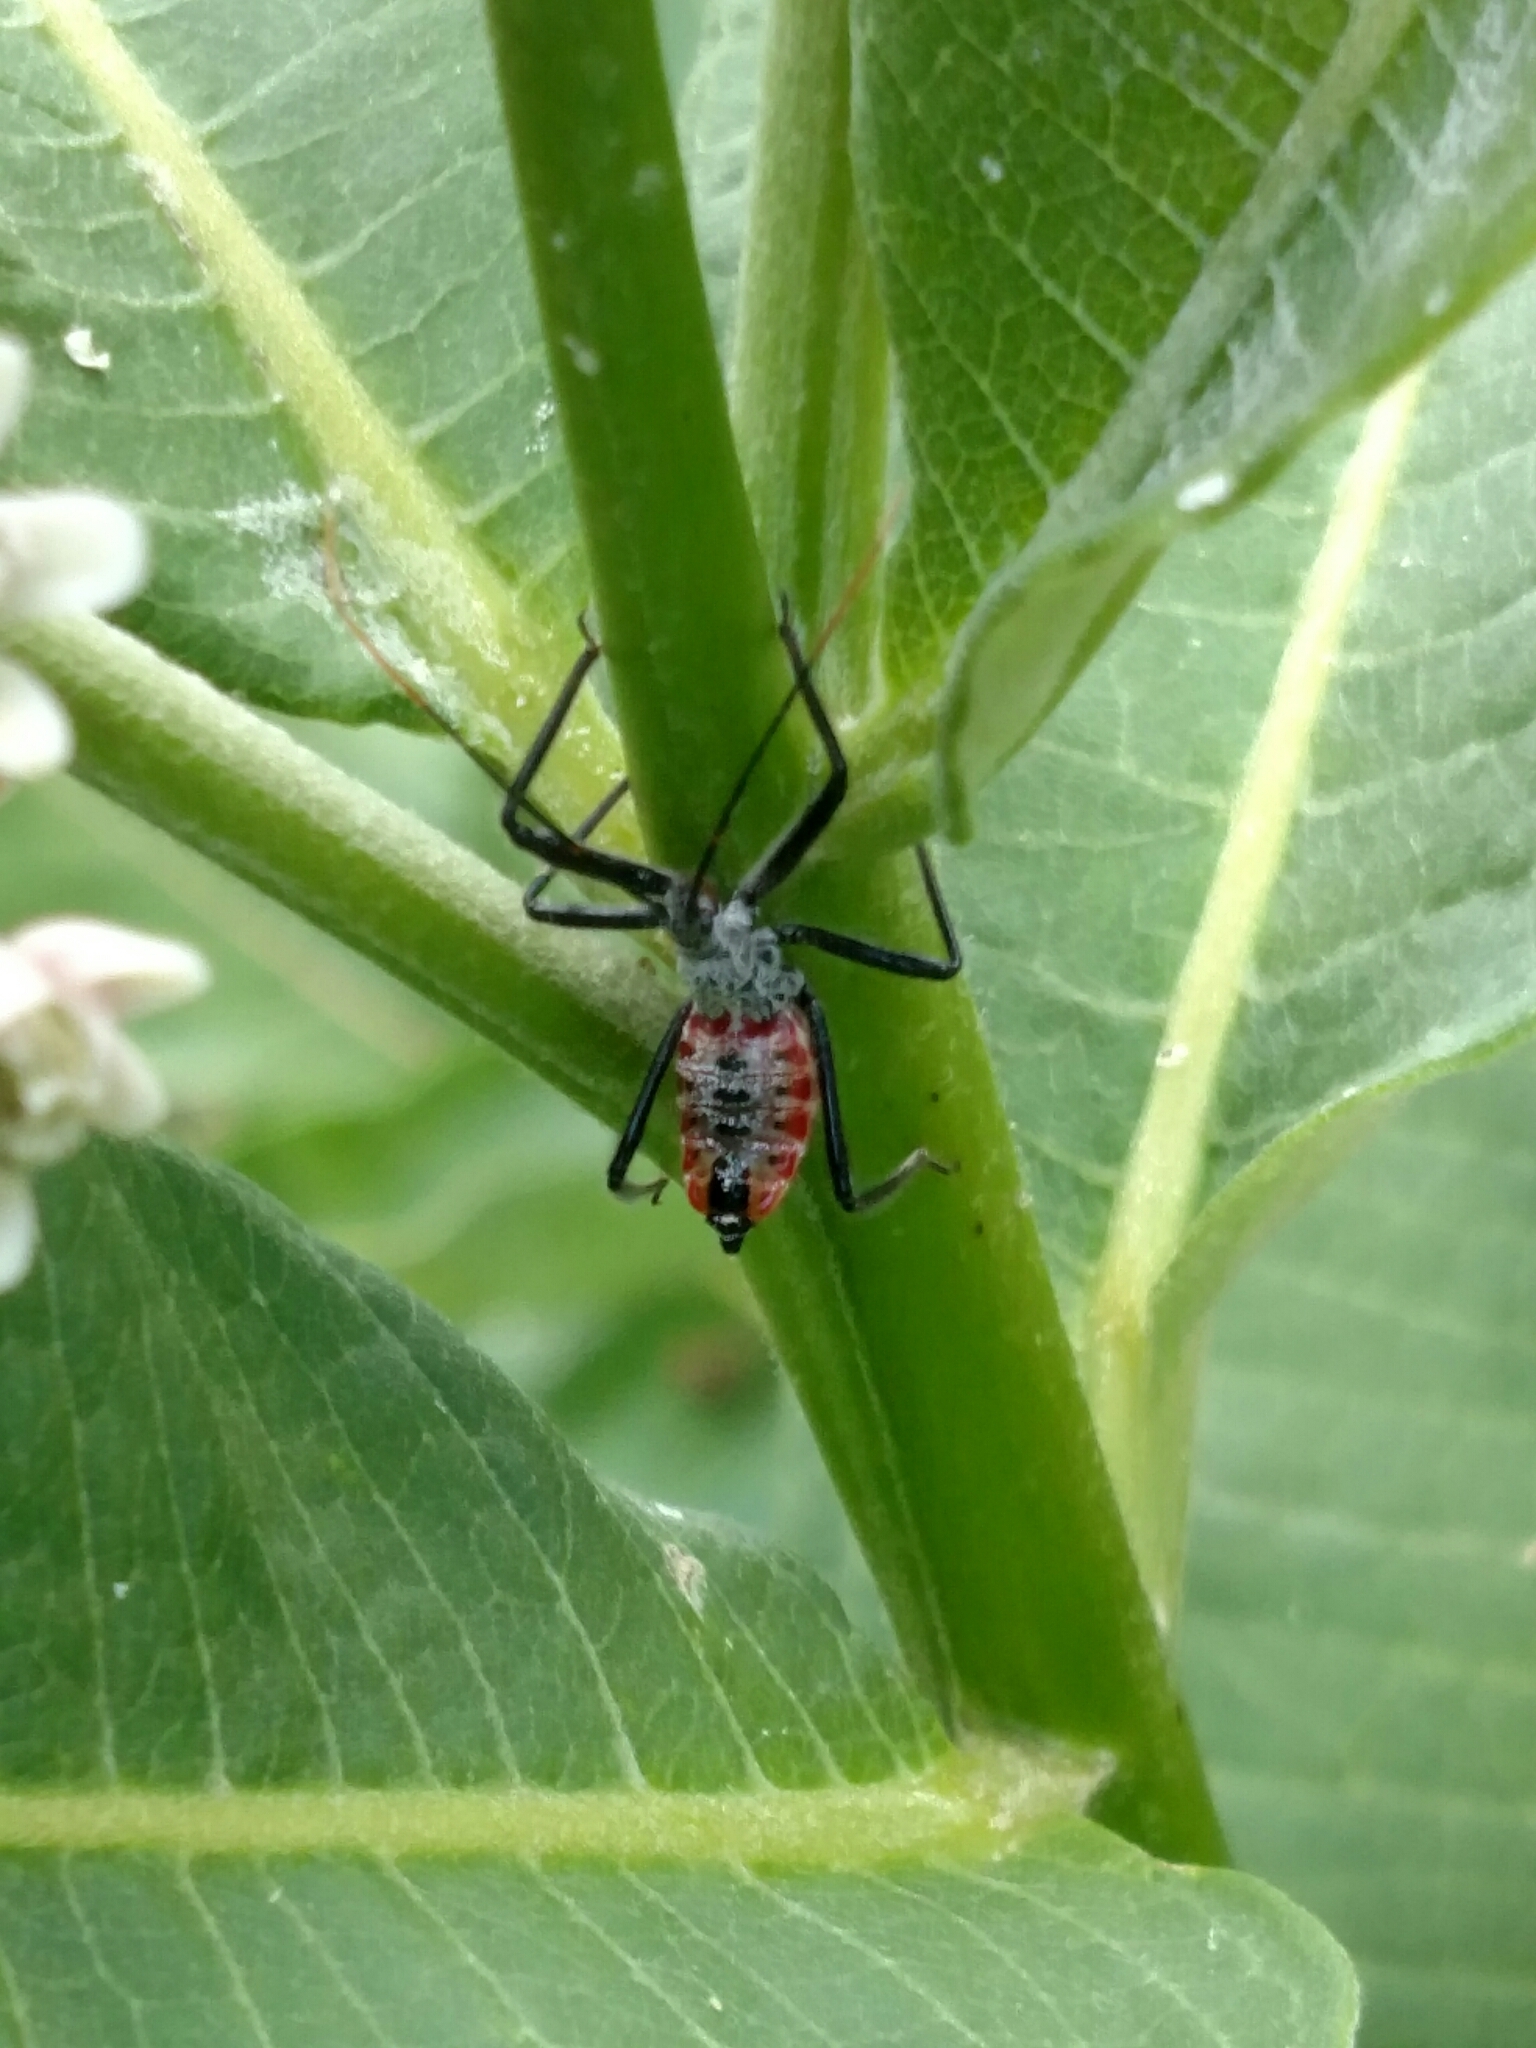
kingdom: Animalia
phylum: Arthropoda
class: Insecta
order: Hemiptera
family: Reduviidae
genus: Arilus
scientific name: Arilus cristatus
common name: North american wheel bug
